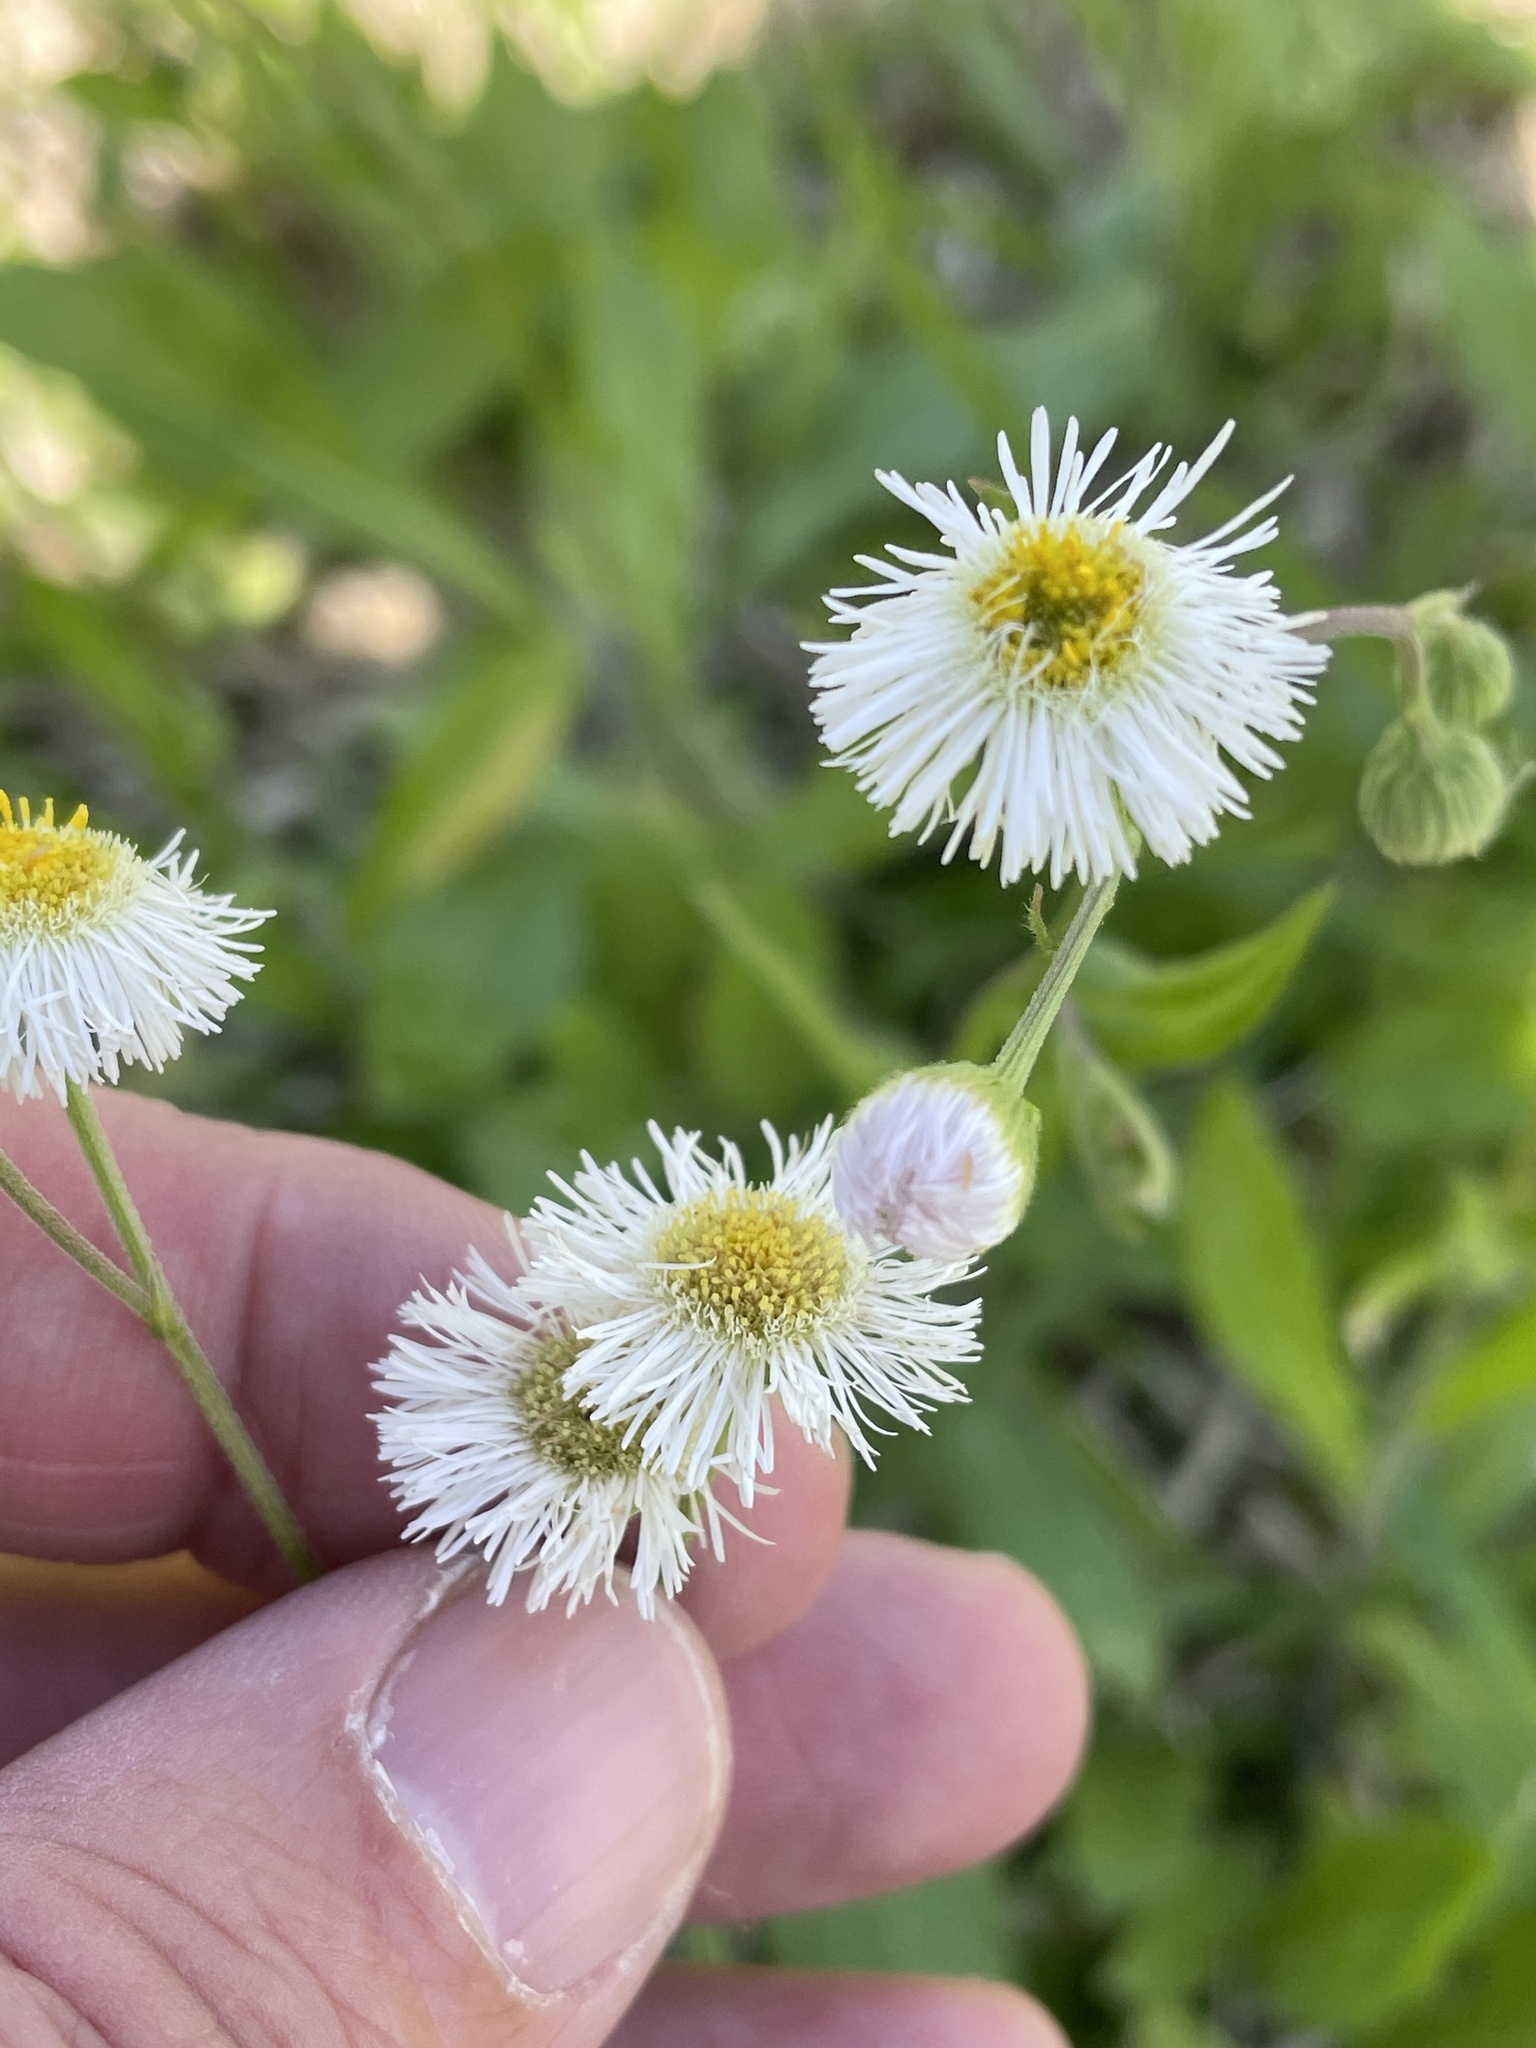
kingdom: Plantae
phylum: Tracheophyta
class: Magnoliopsida
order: Asterales
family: Asteraceae
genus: Erigeron
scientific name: Erigeron philadelphicus
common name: Robin's-plantain
